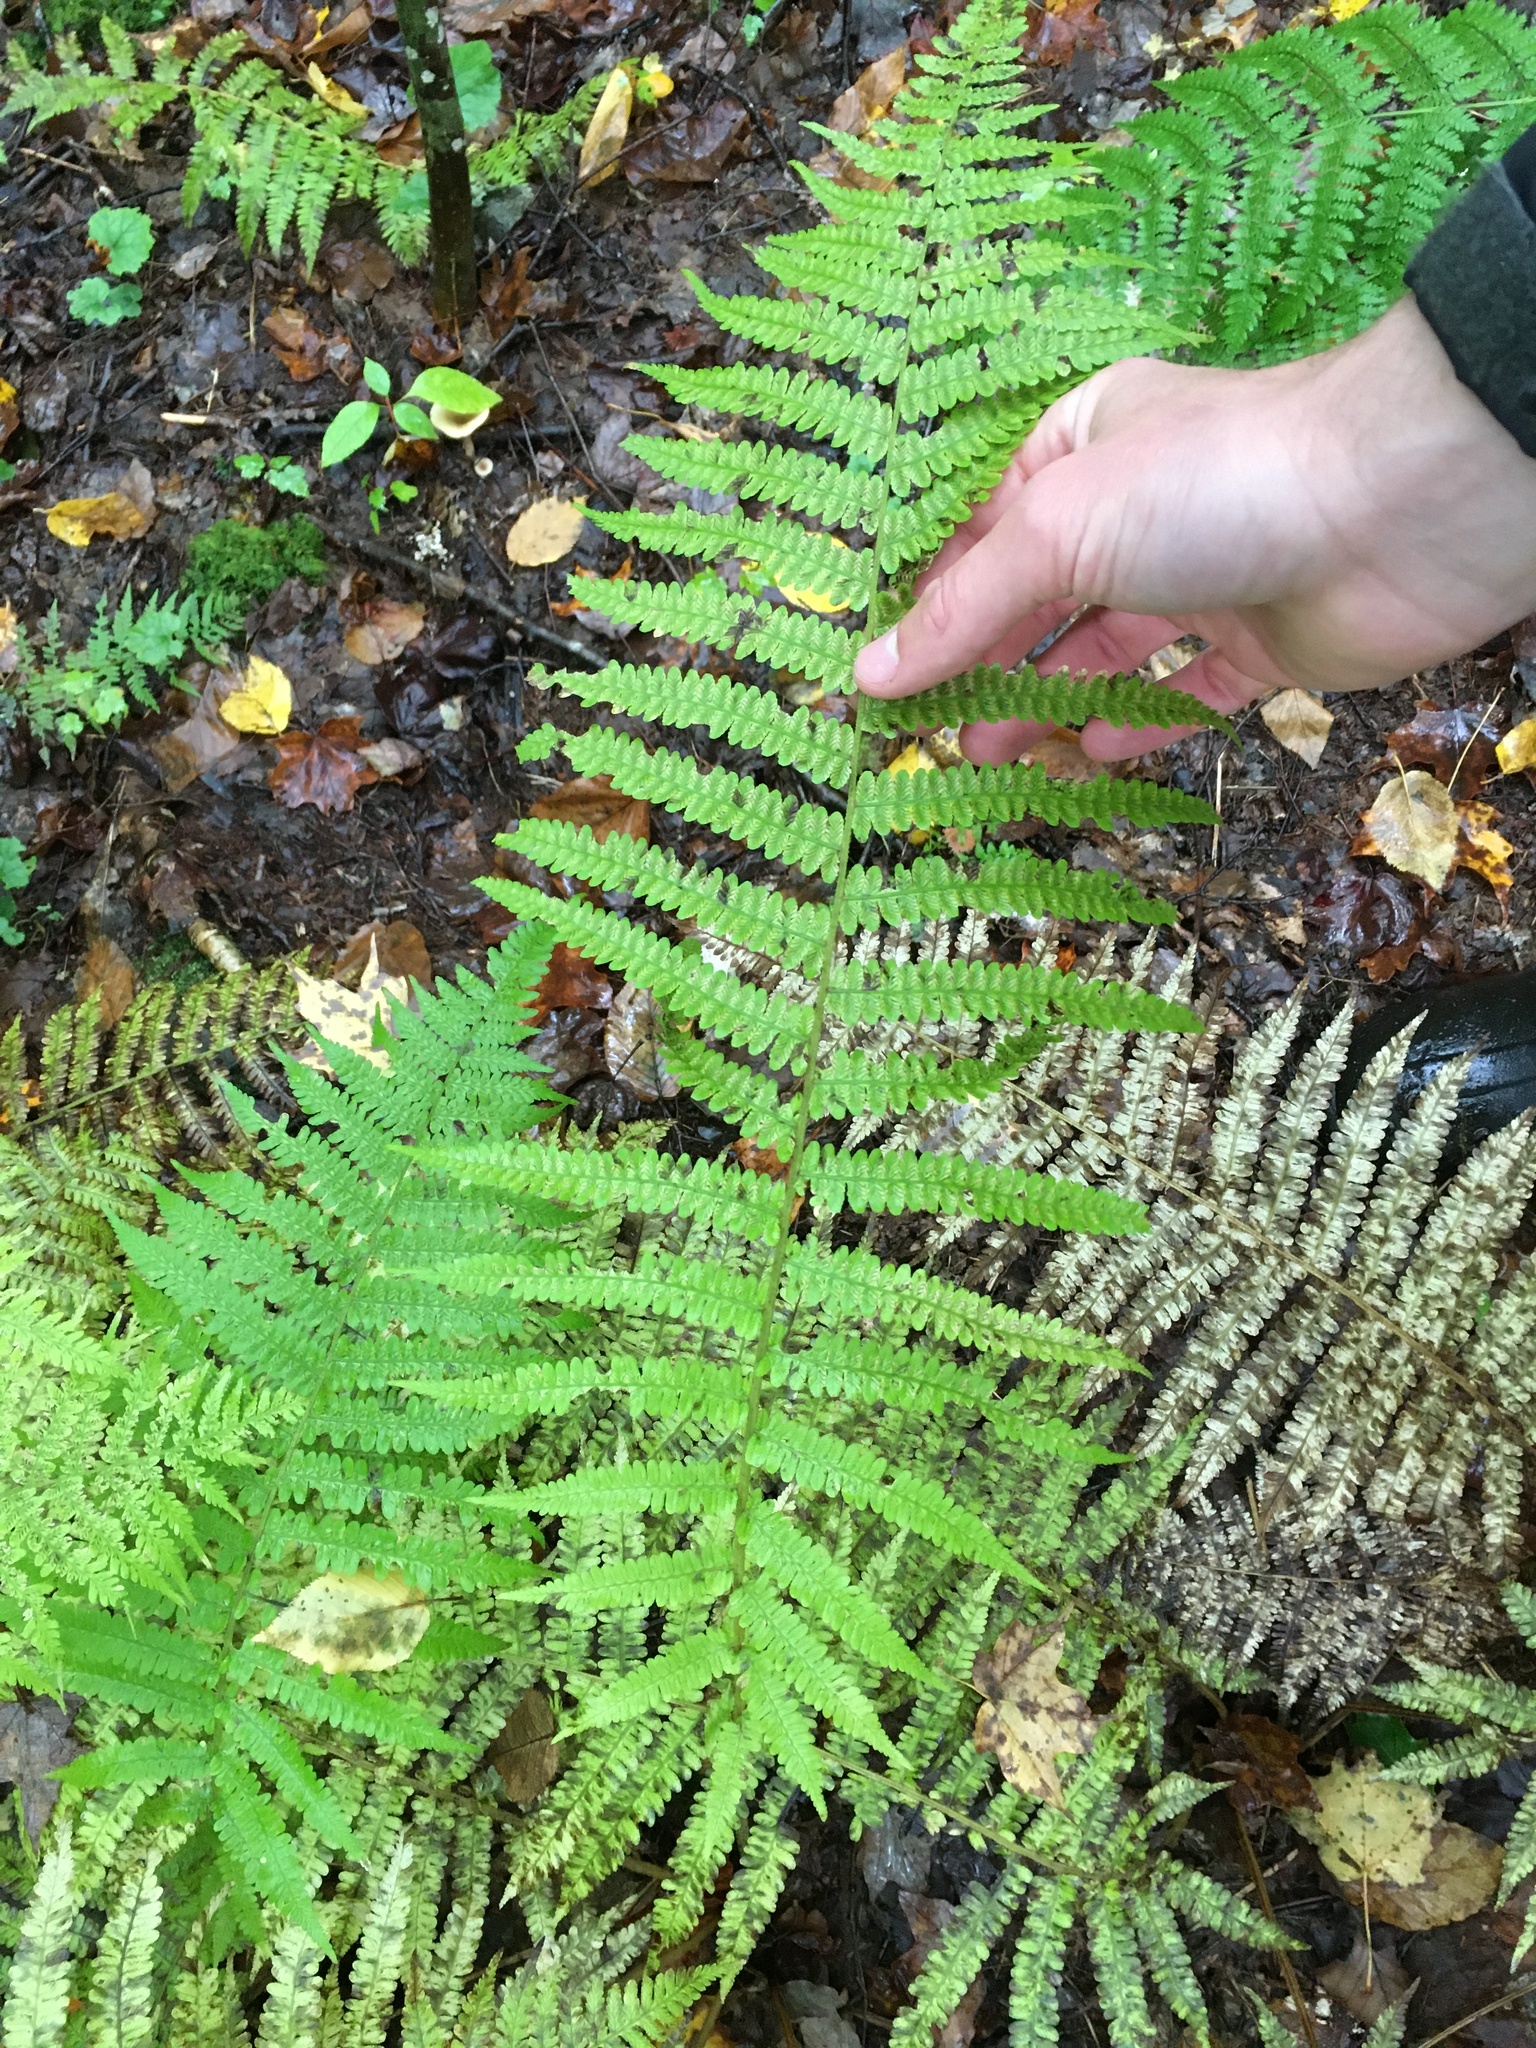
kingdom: Plantae
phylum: Tracheophyta
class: Polypodiopsida
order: Polypodiales
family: Athyriaceae
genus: Deparia
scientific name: Deparia acrostichoides
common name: Silver false spleenwort
